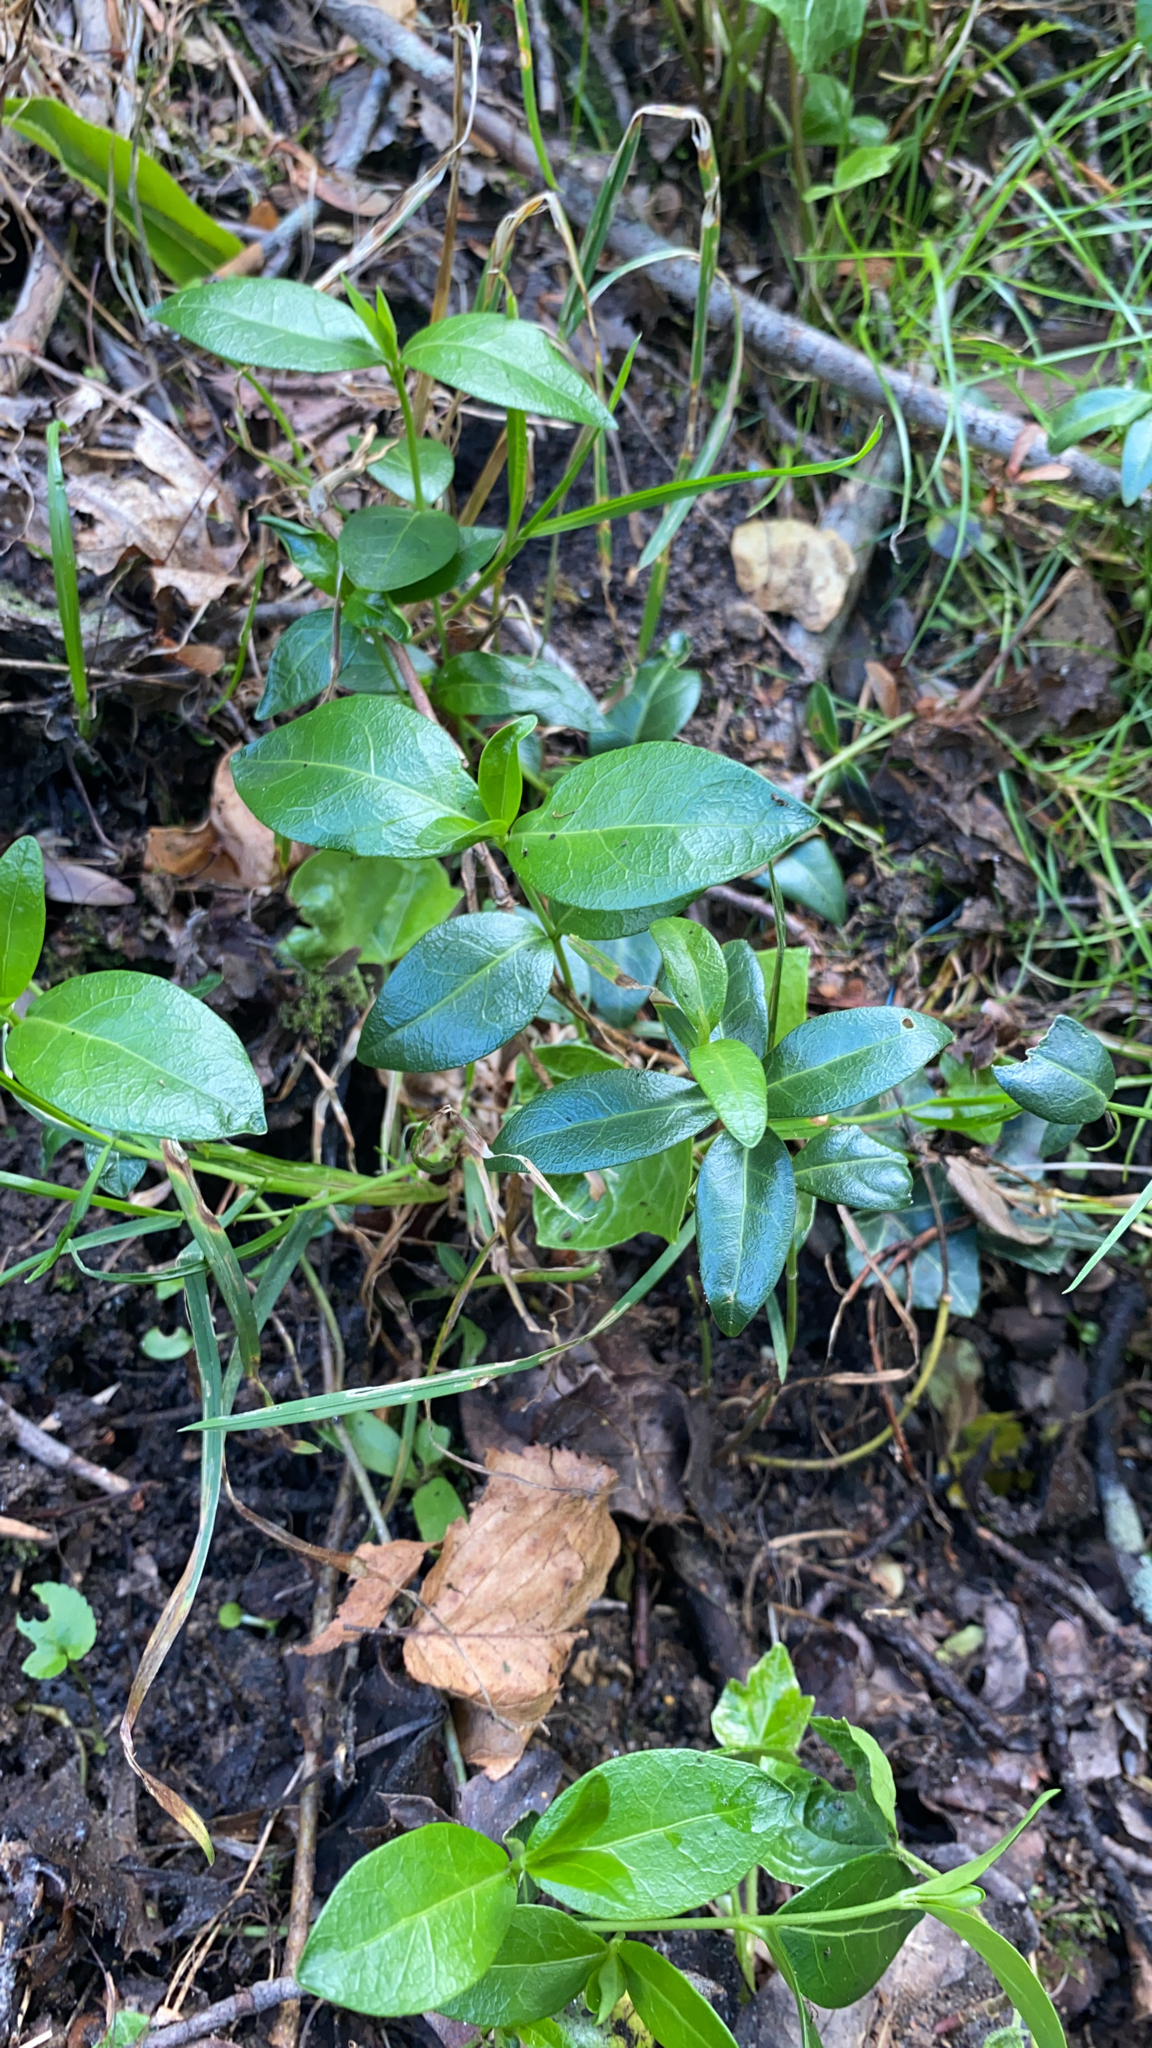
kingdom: Plantae
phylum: Tracheophyta
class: Magnoliopsida
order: Gentianales
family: Apocynaceae
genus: Vinca
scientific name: Vinca minor
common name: Lesser periwinkle
